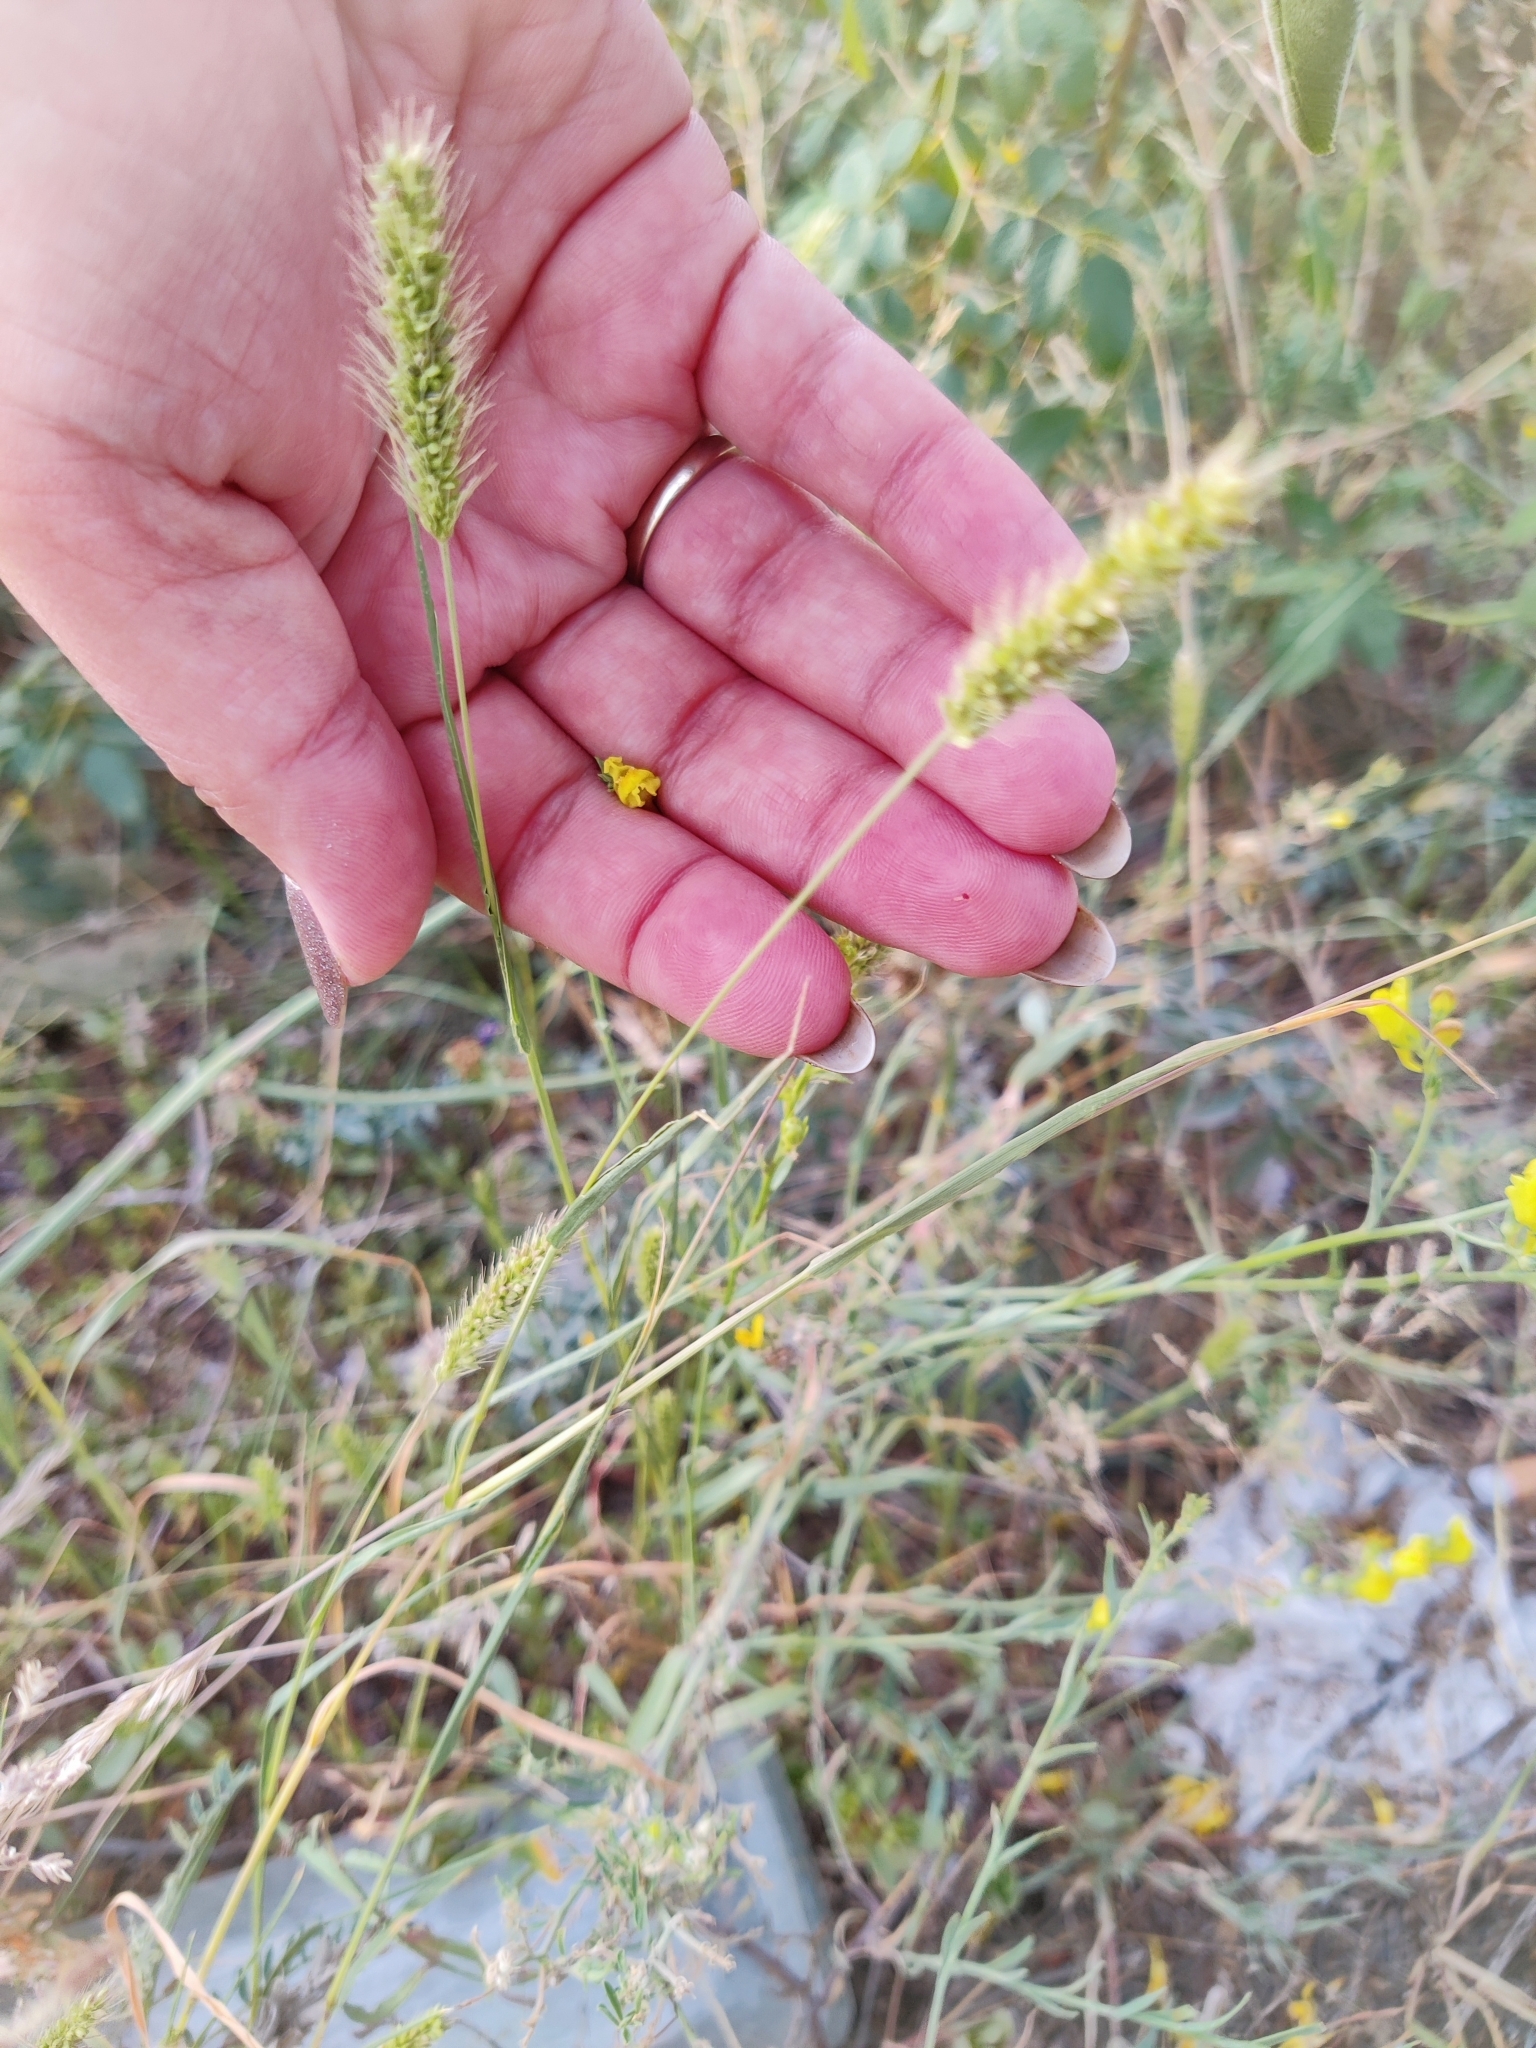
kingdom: Plantae
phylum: Tracheophyta
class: Liliopsida
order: Poales
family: Poaceae
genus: Setaria
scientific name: Setaria viridis
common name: Green bristlegrass
